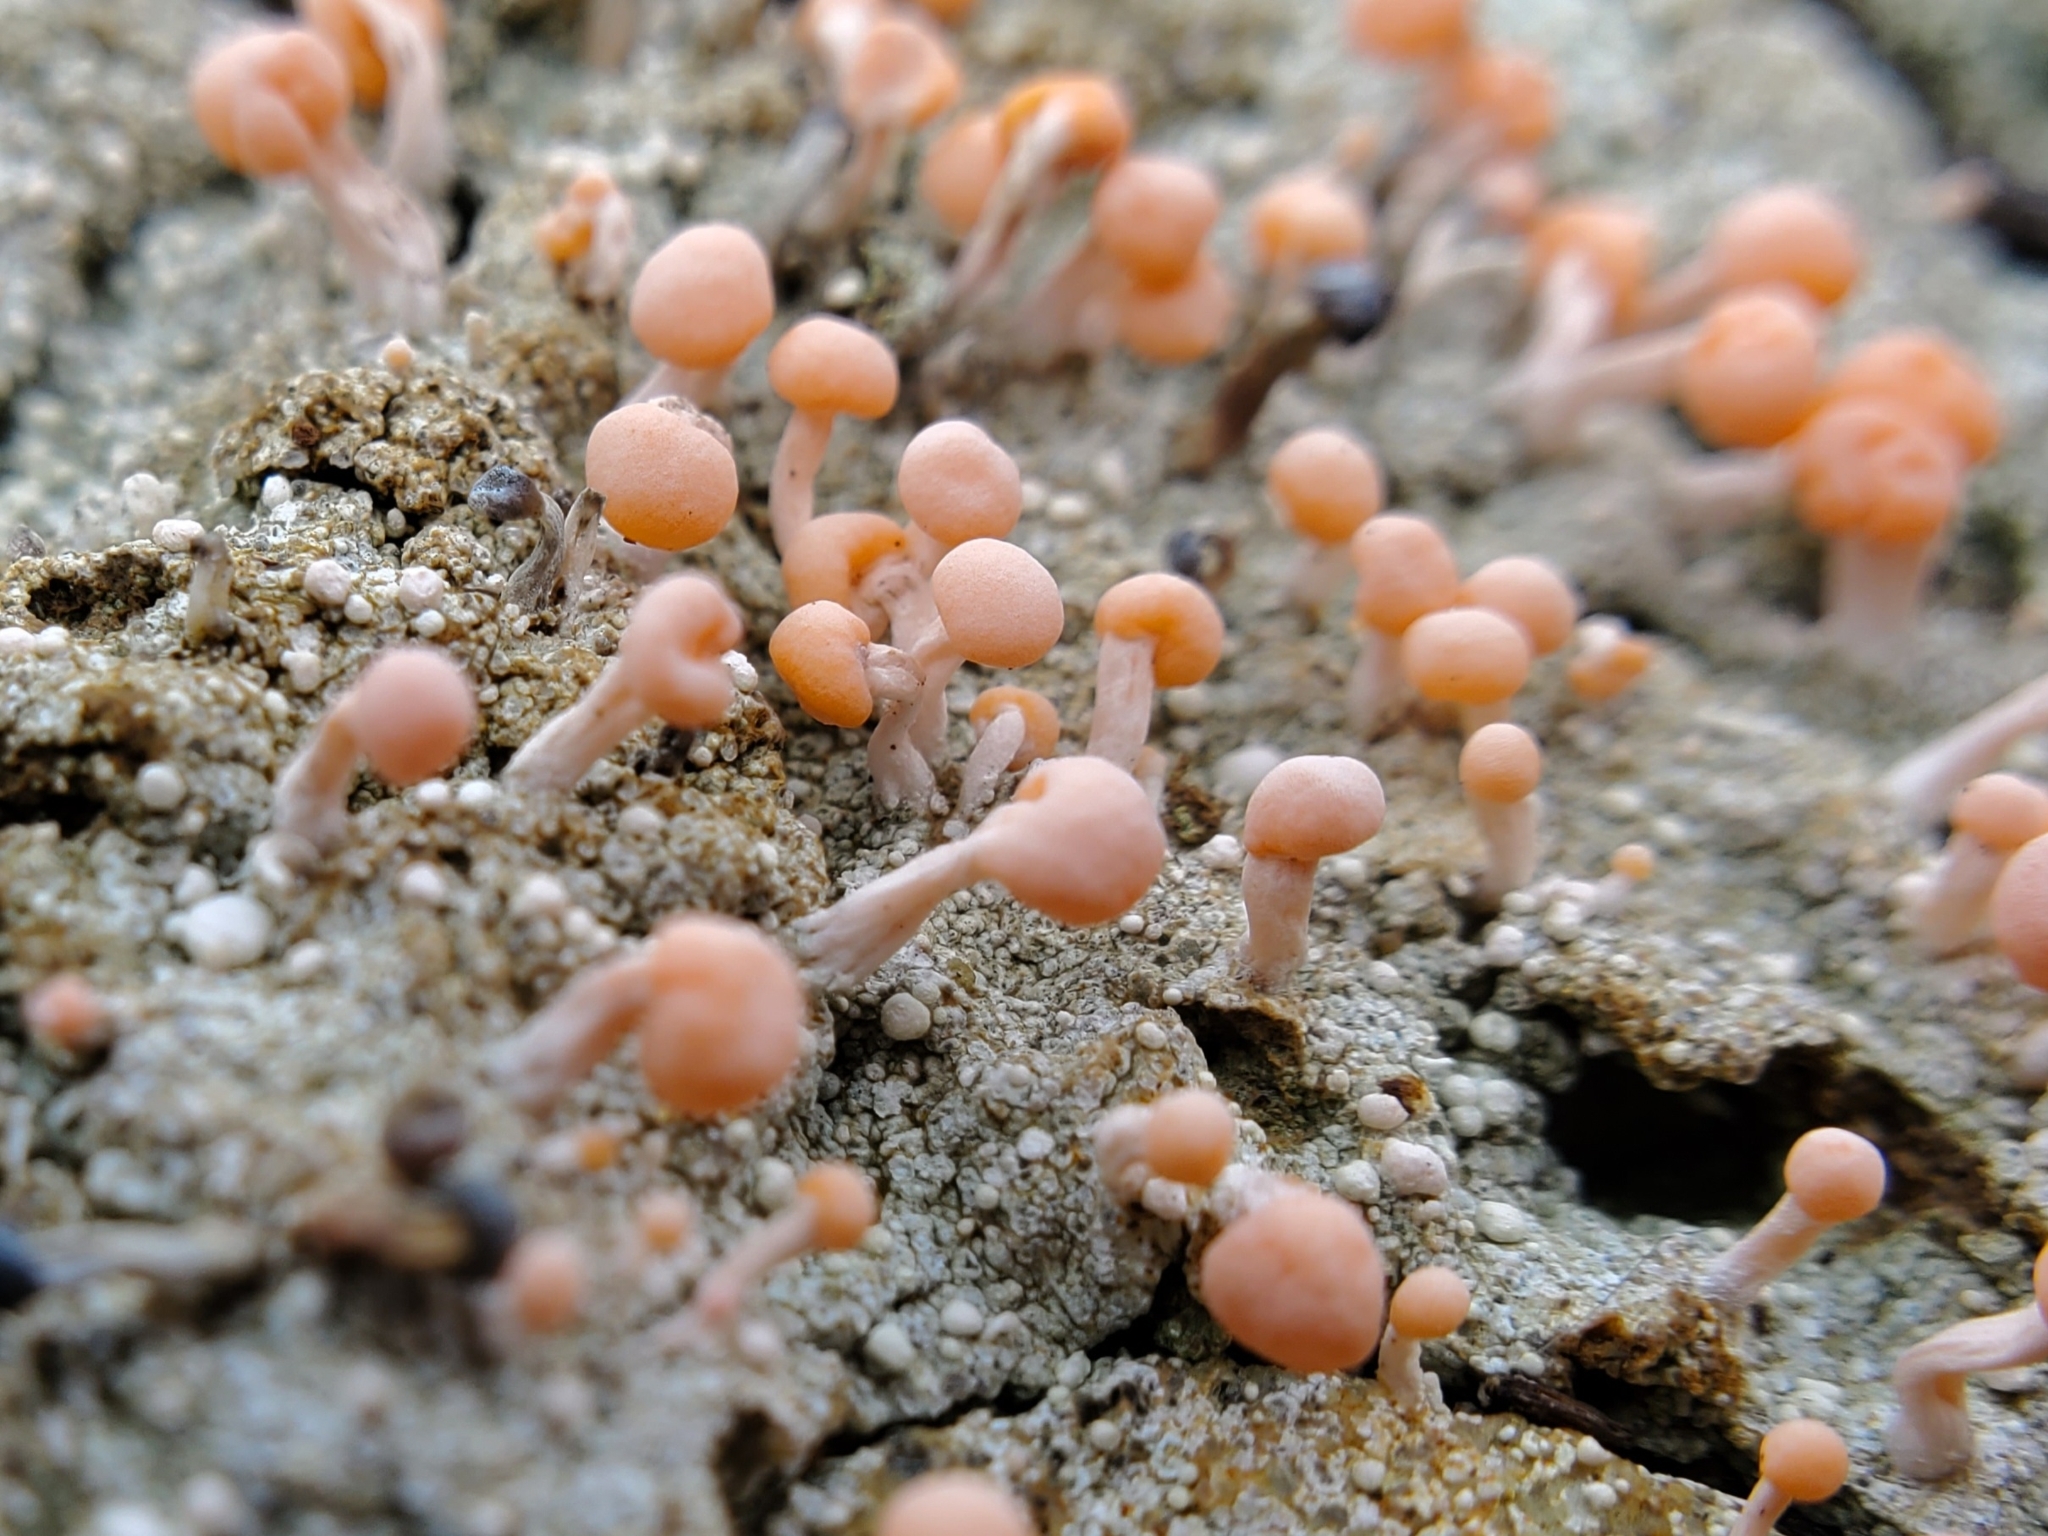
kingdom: Fungi
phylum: Ascomycota
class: Lecanoromycetes
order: Pertusariales
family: Icmadophilaceae
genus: Dibaeis
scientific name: Dibaeis baeomyces
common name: Pink earth lichen
